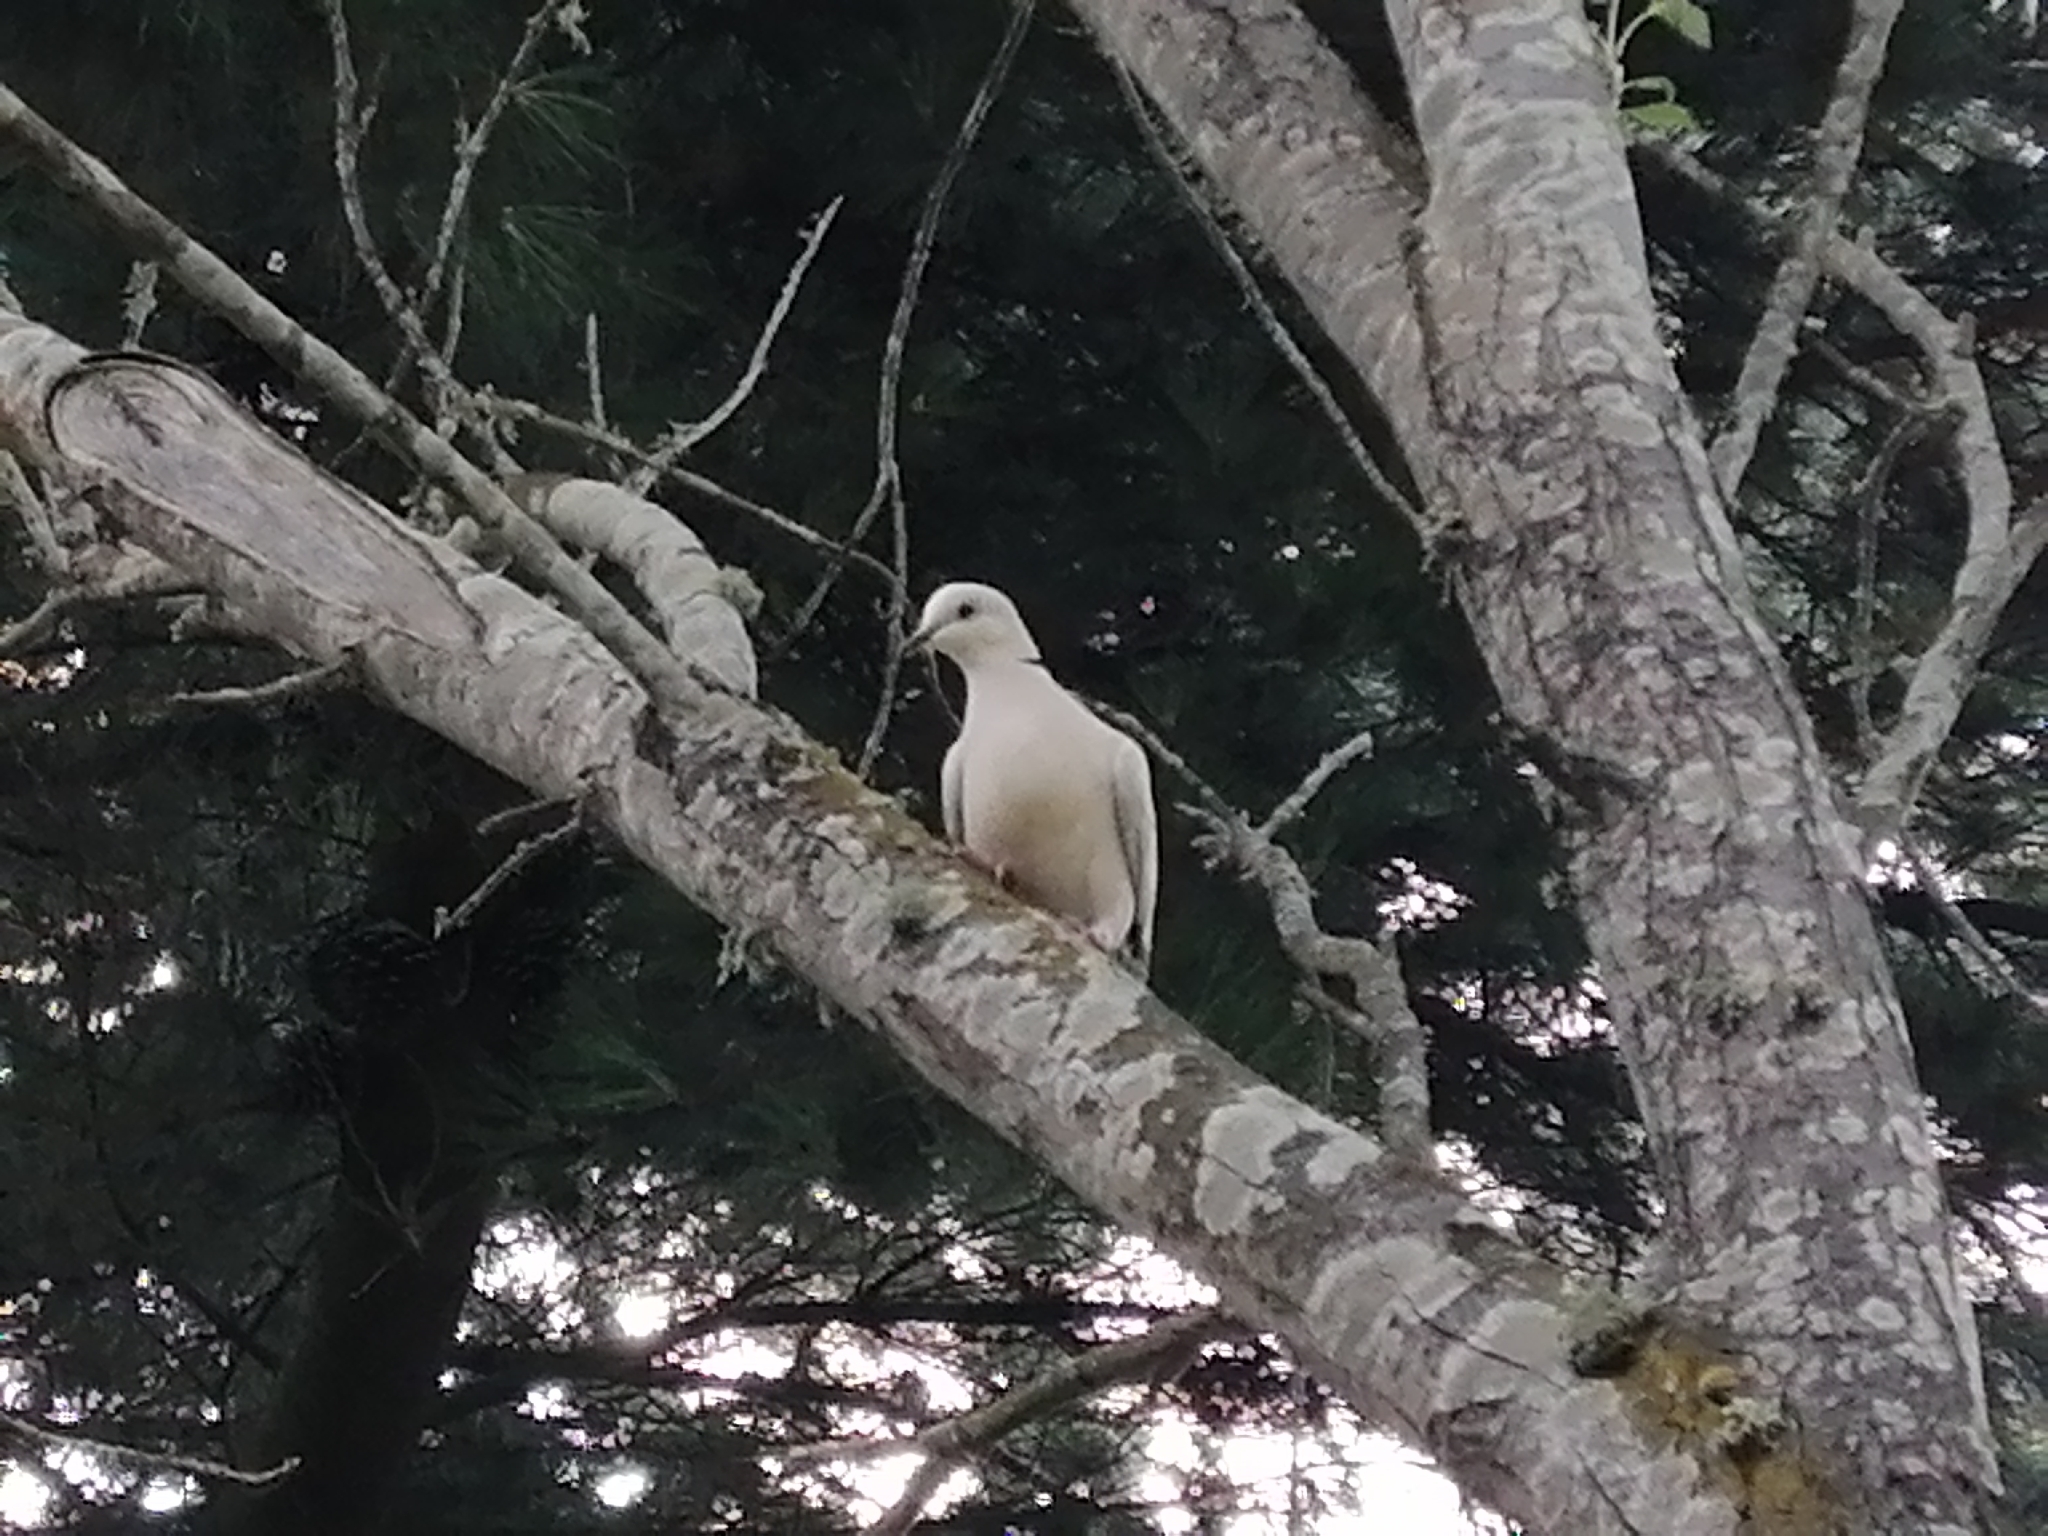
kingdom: Animalia
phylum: Chordata
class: Aves
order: Columbiformes
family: Columbidae
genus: Streptopelia
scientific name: Streptopelia roseogrisea
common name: African collared dove
